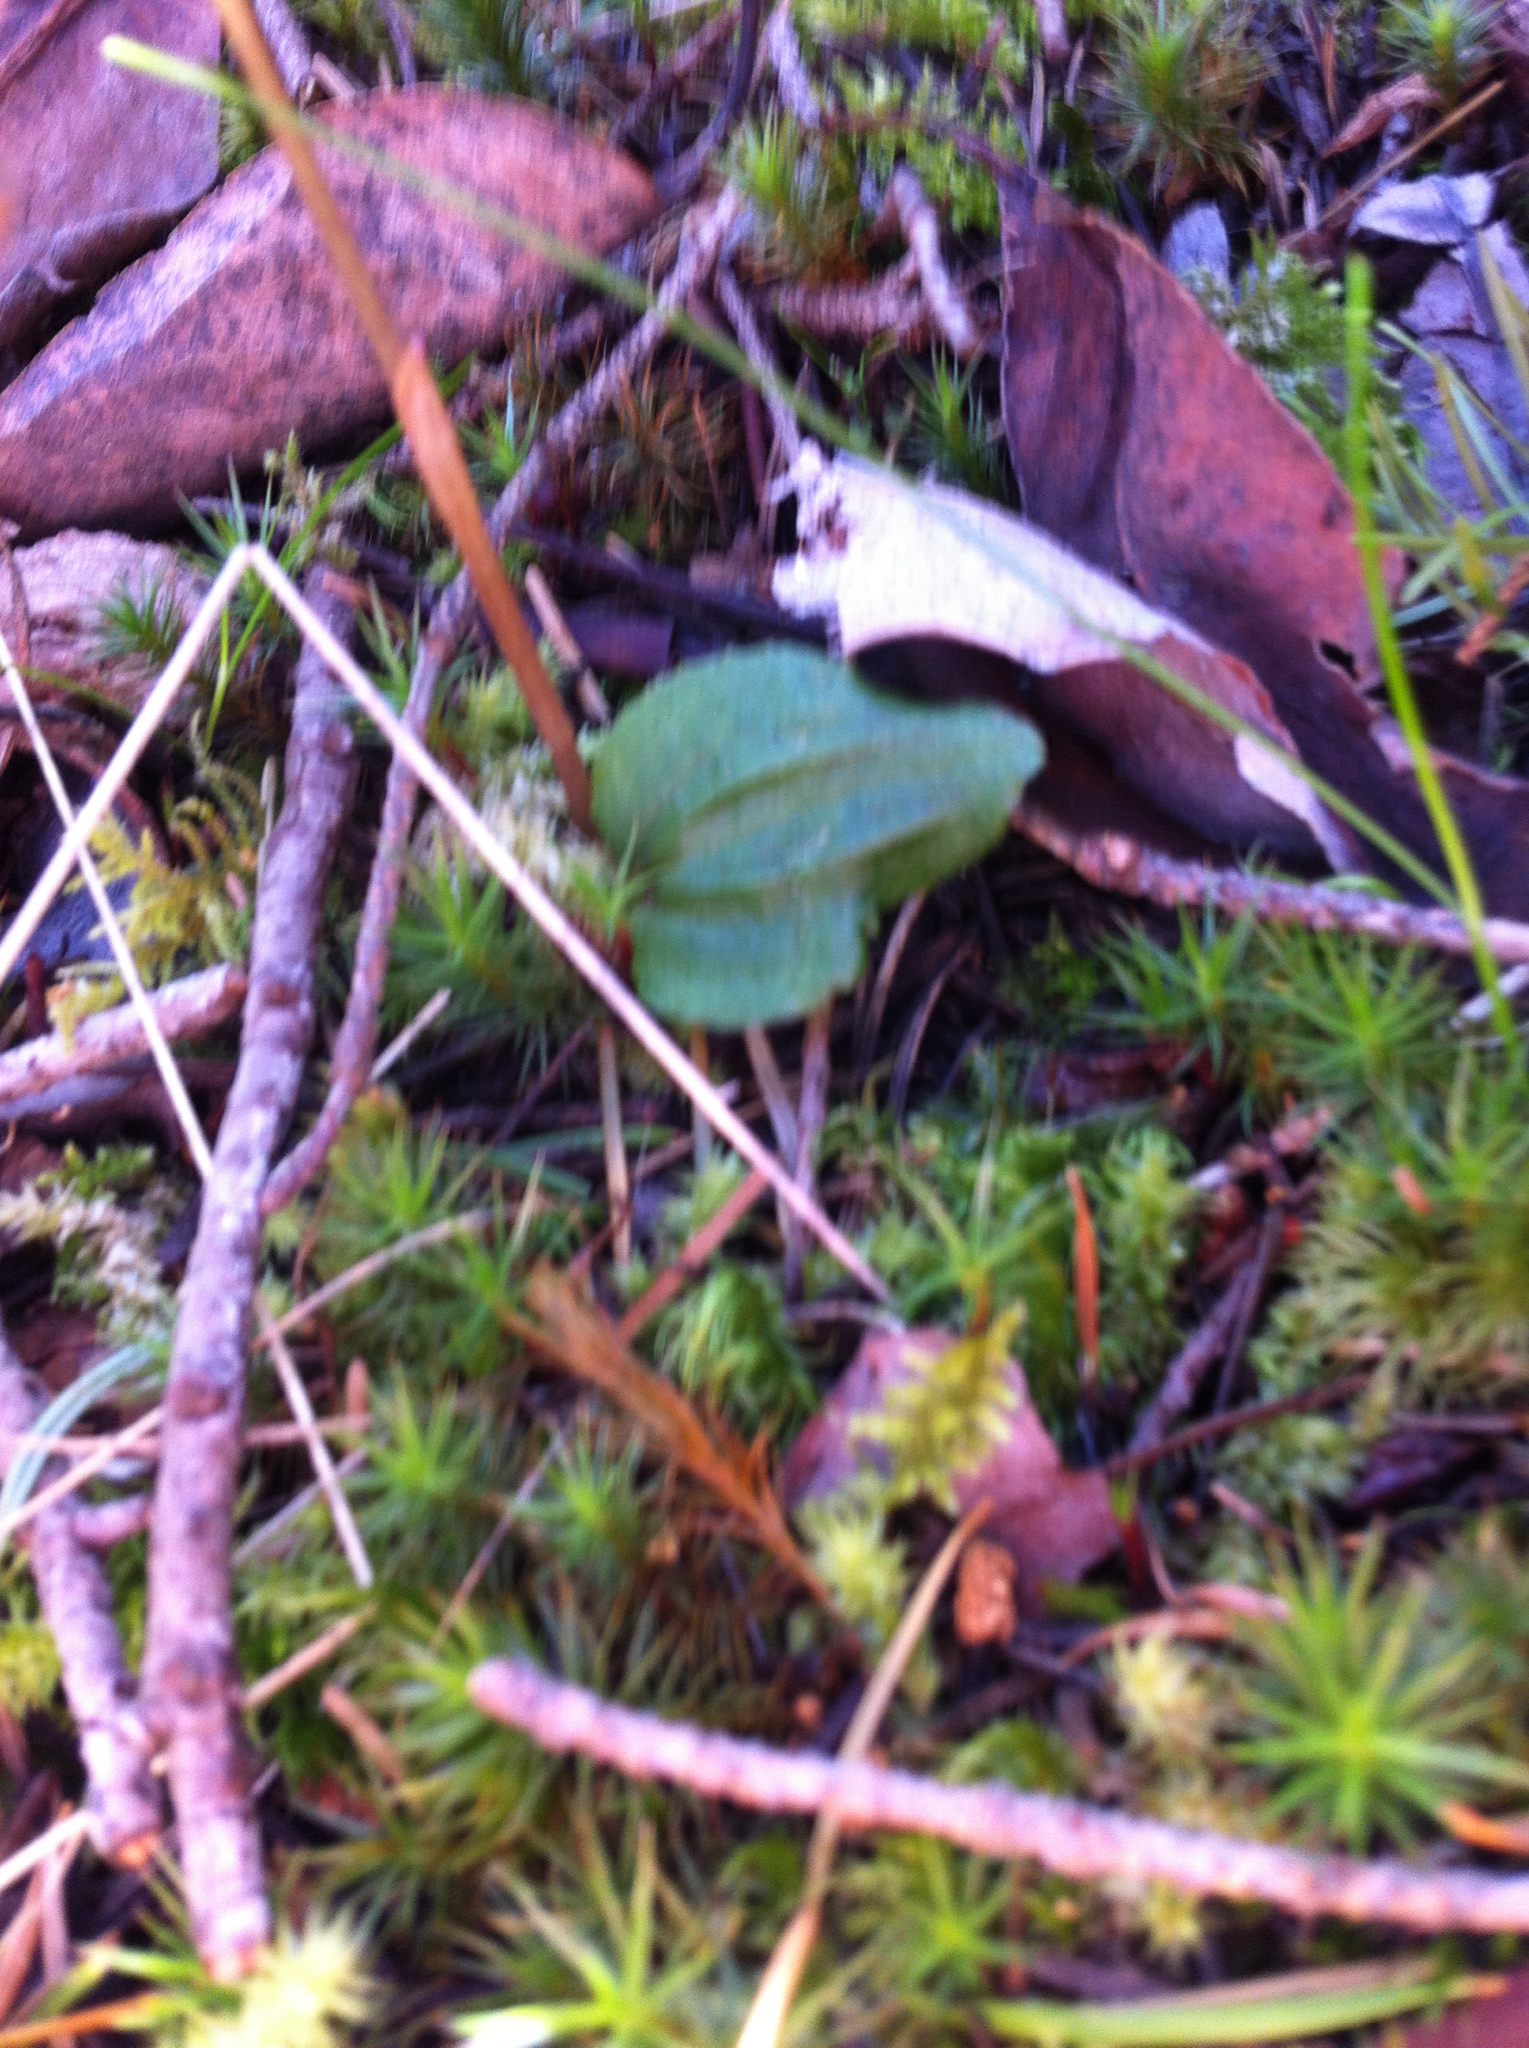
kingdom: Plantae
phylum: Tracheophyta
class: Liliopsida
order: Asparagales
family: Orchidaceae
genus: Calypso
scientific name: Calypso bulbosa
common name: Calypso
